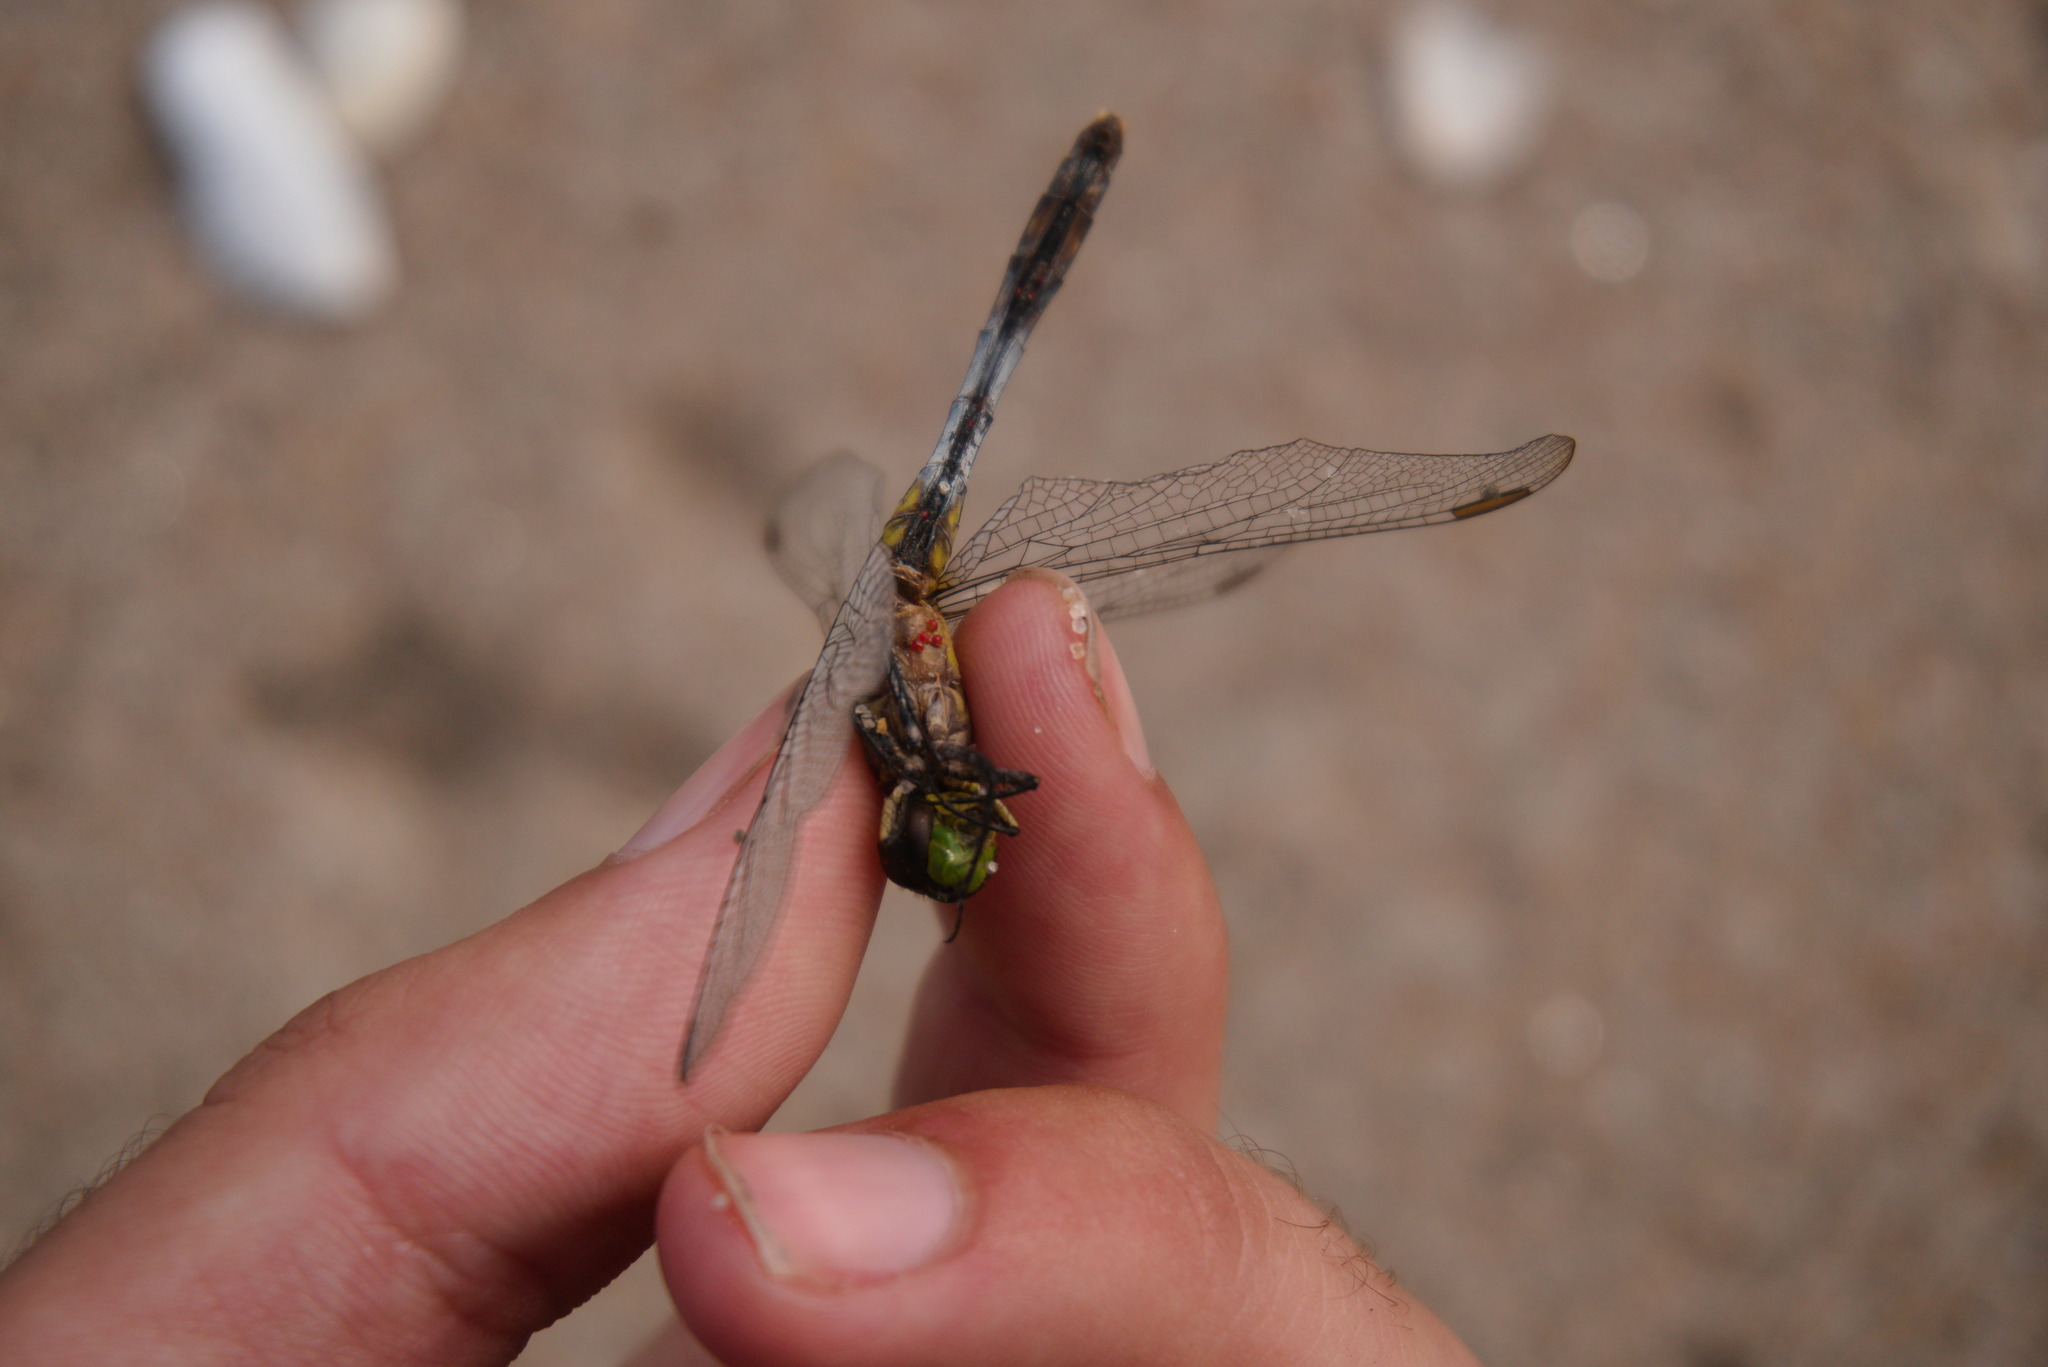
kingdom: Animalia
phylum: Arthropoda
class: Insecta
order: Odonata
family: Libellulidae
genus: Erythemis
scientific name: Erythemis simplicicollis
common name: Eastern pondhawk
